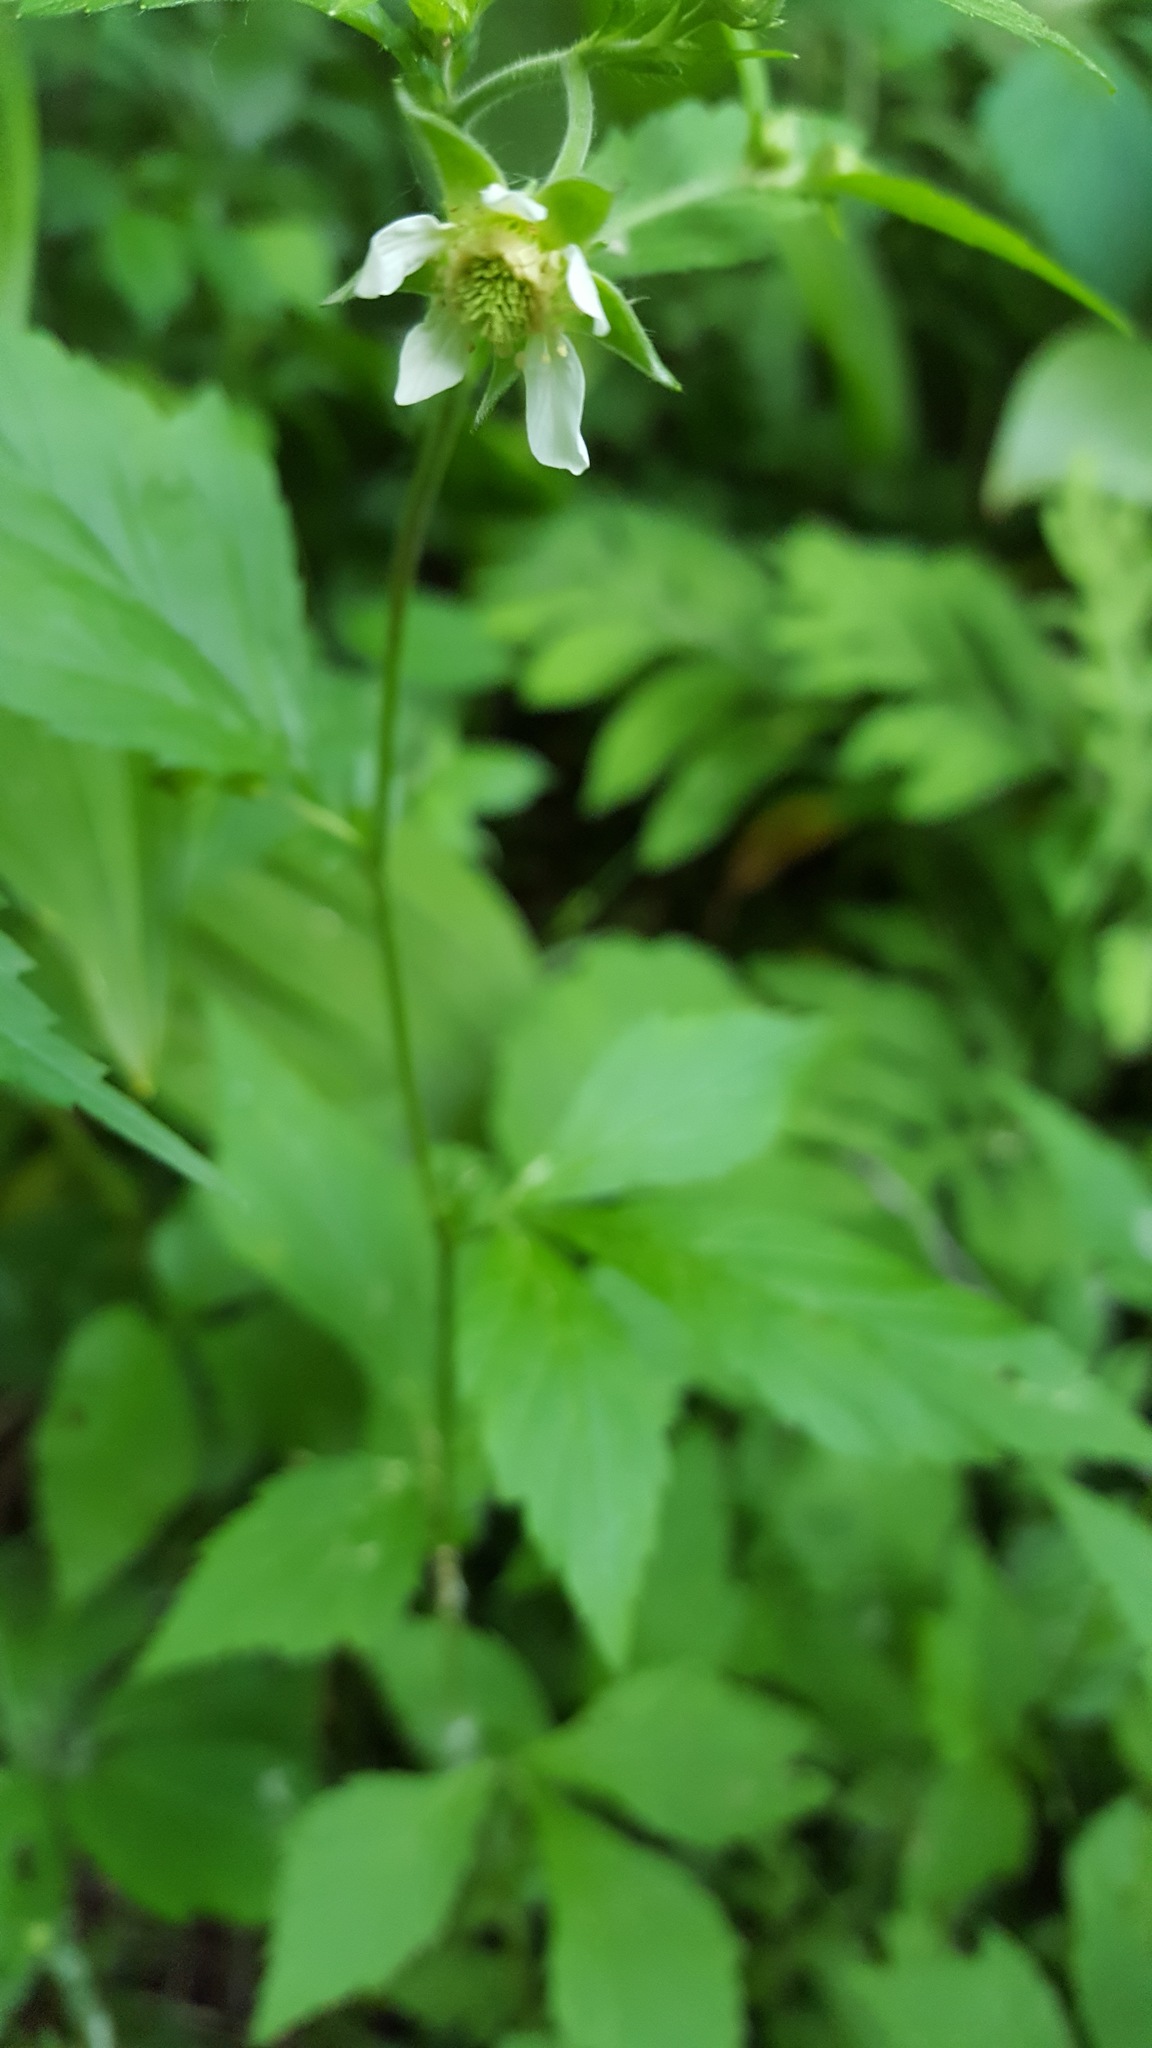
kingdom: Plantae
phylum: Tracheophyta
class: Magnoliopsida
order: Rosales
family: Rosaceae
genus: Geum
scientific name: Geum canadense
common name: White avens
